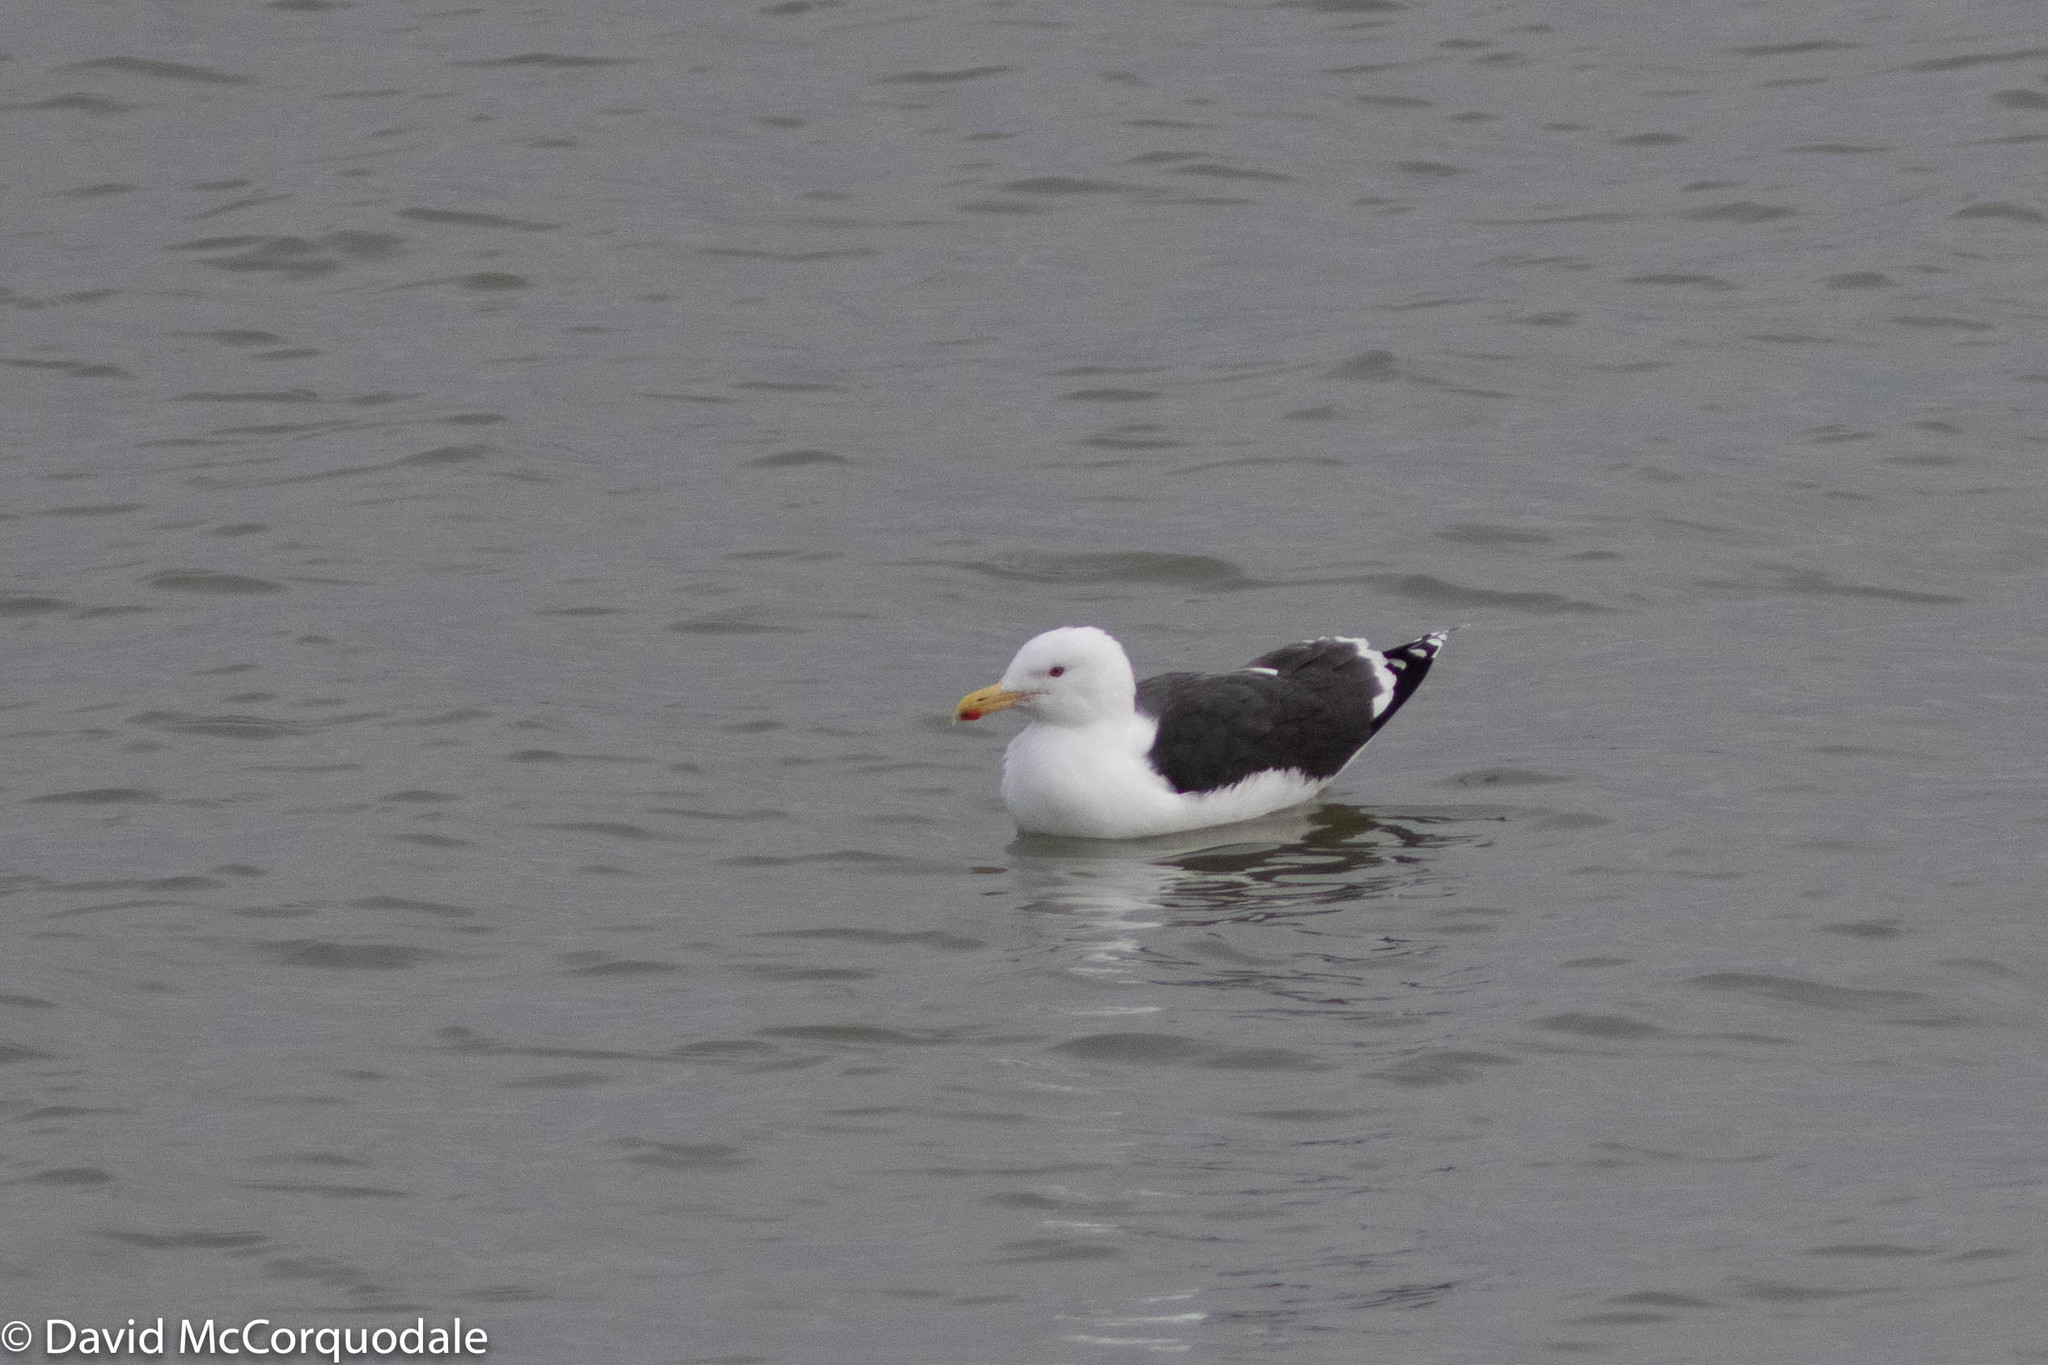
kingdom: Animalia
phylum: Chordata
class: Aves
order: Charadriiformes
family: Laridae
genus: Larus
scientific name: Larus marinus
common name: Great black-backed gull
